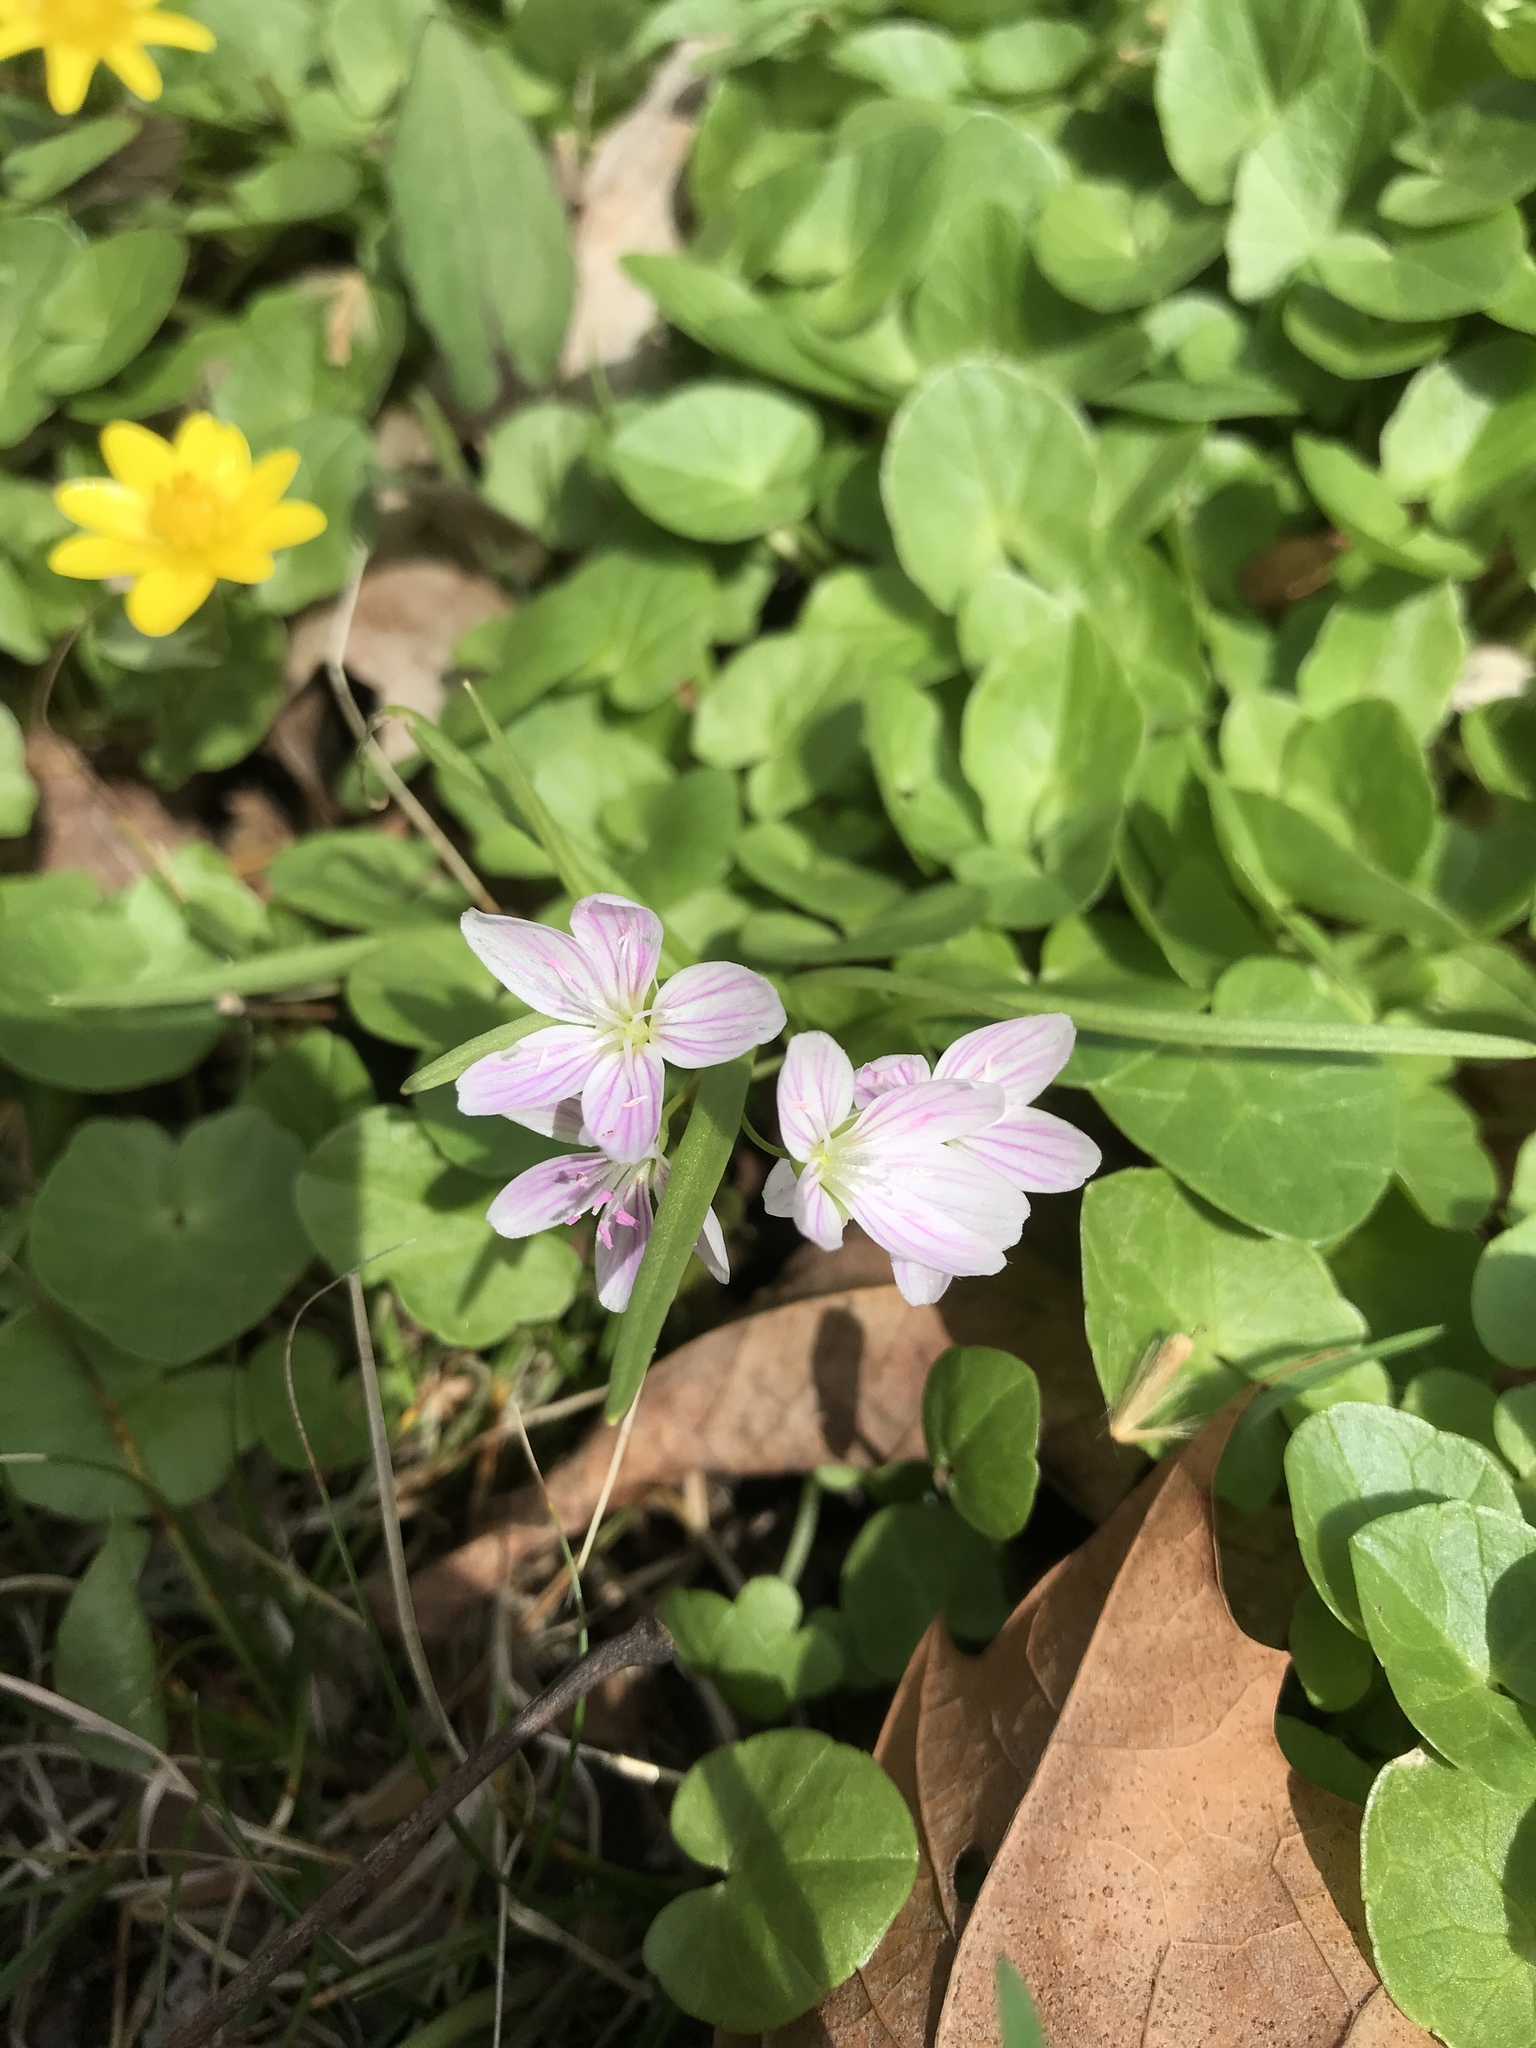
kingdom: Plantae
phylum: Tracheophyta
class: Magnoliopsida
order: Caryophyllales
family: Montiaceae
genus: Claytonia
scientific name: Claytonia virginica
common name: Virginia springbeauty
